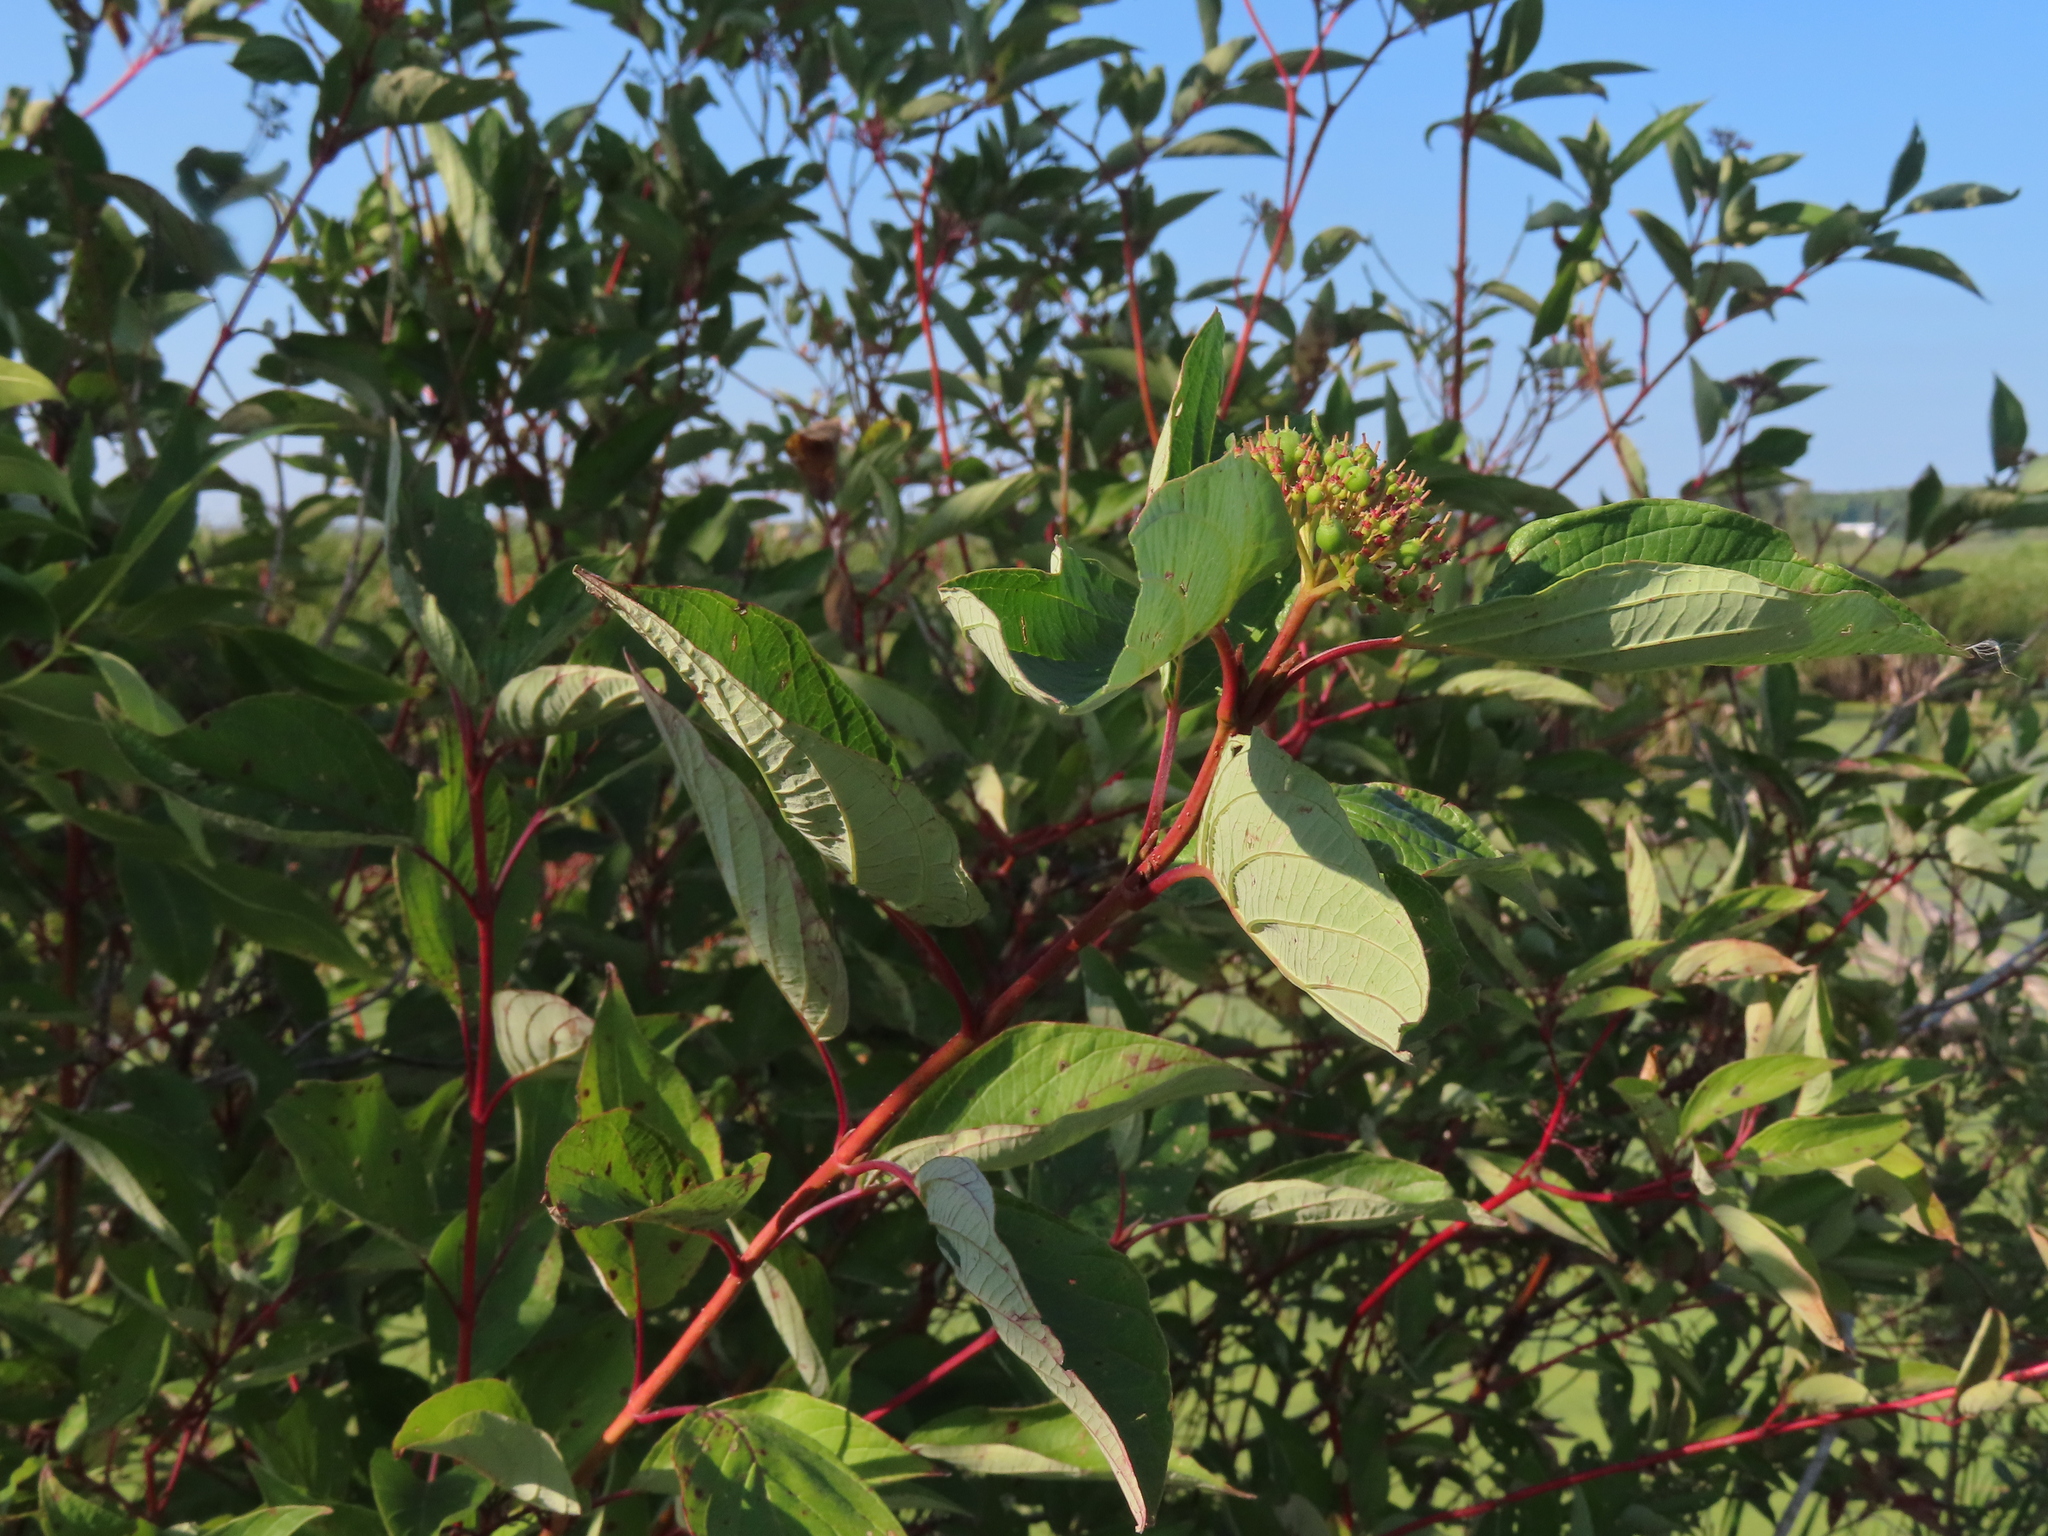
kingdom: Plantae
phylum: Tracheophyta
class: Magnoliopsida
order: Cornales
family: Cornaceae
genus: Cornus
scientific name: Cornus sericea
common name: Red-osier dogwood
